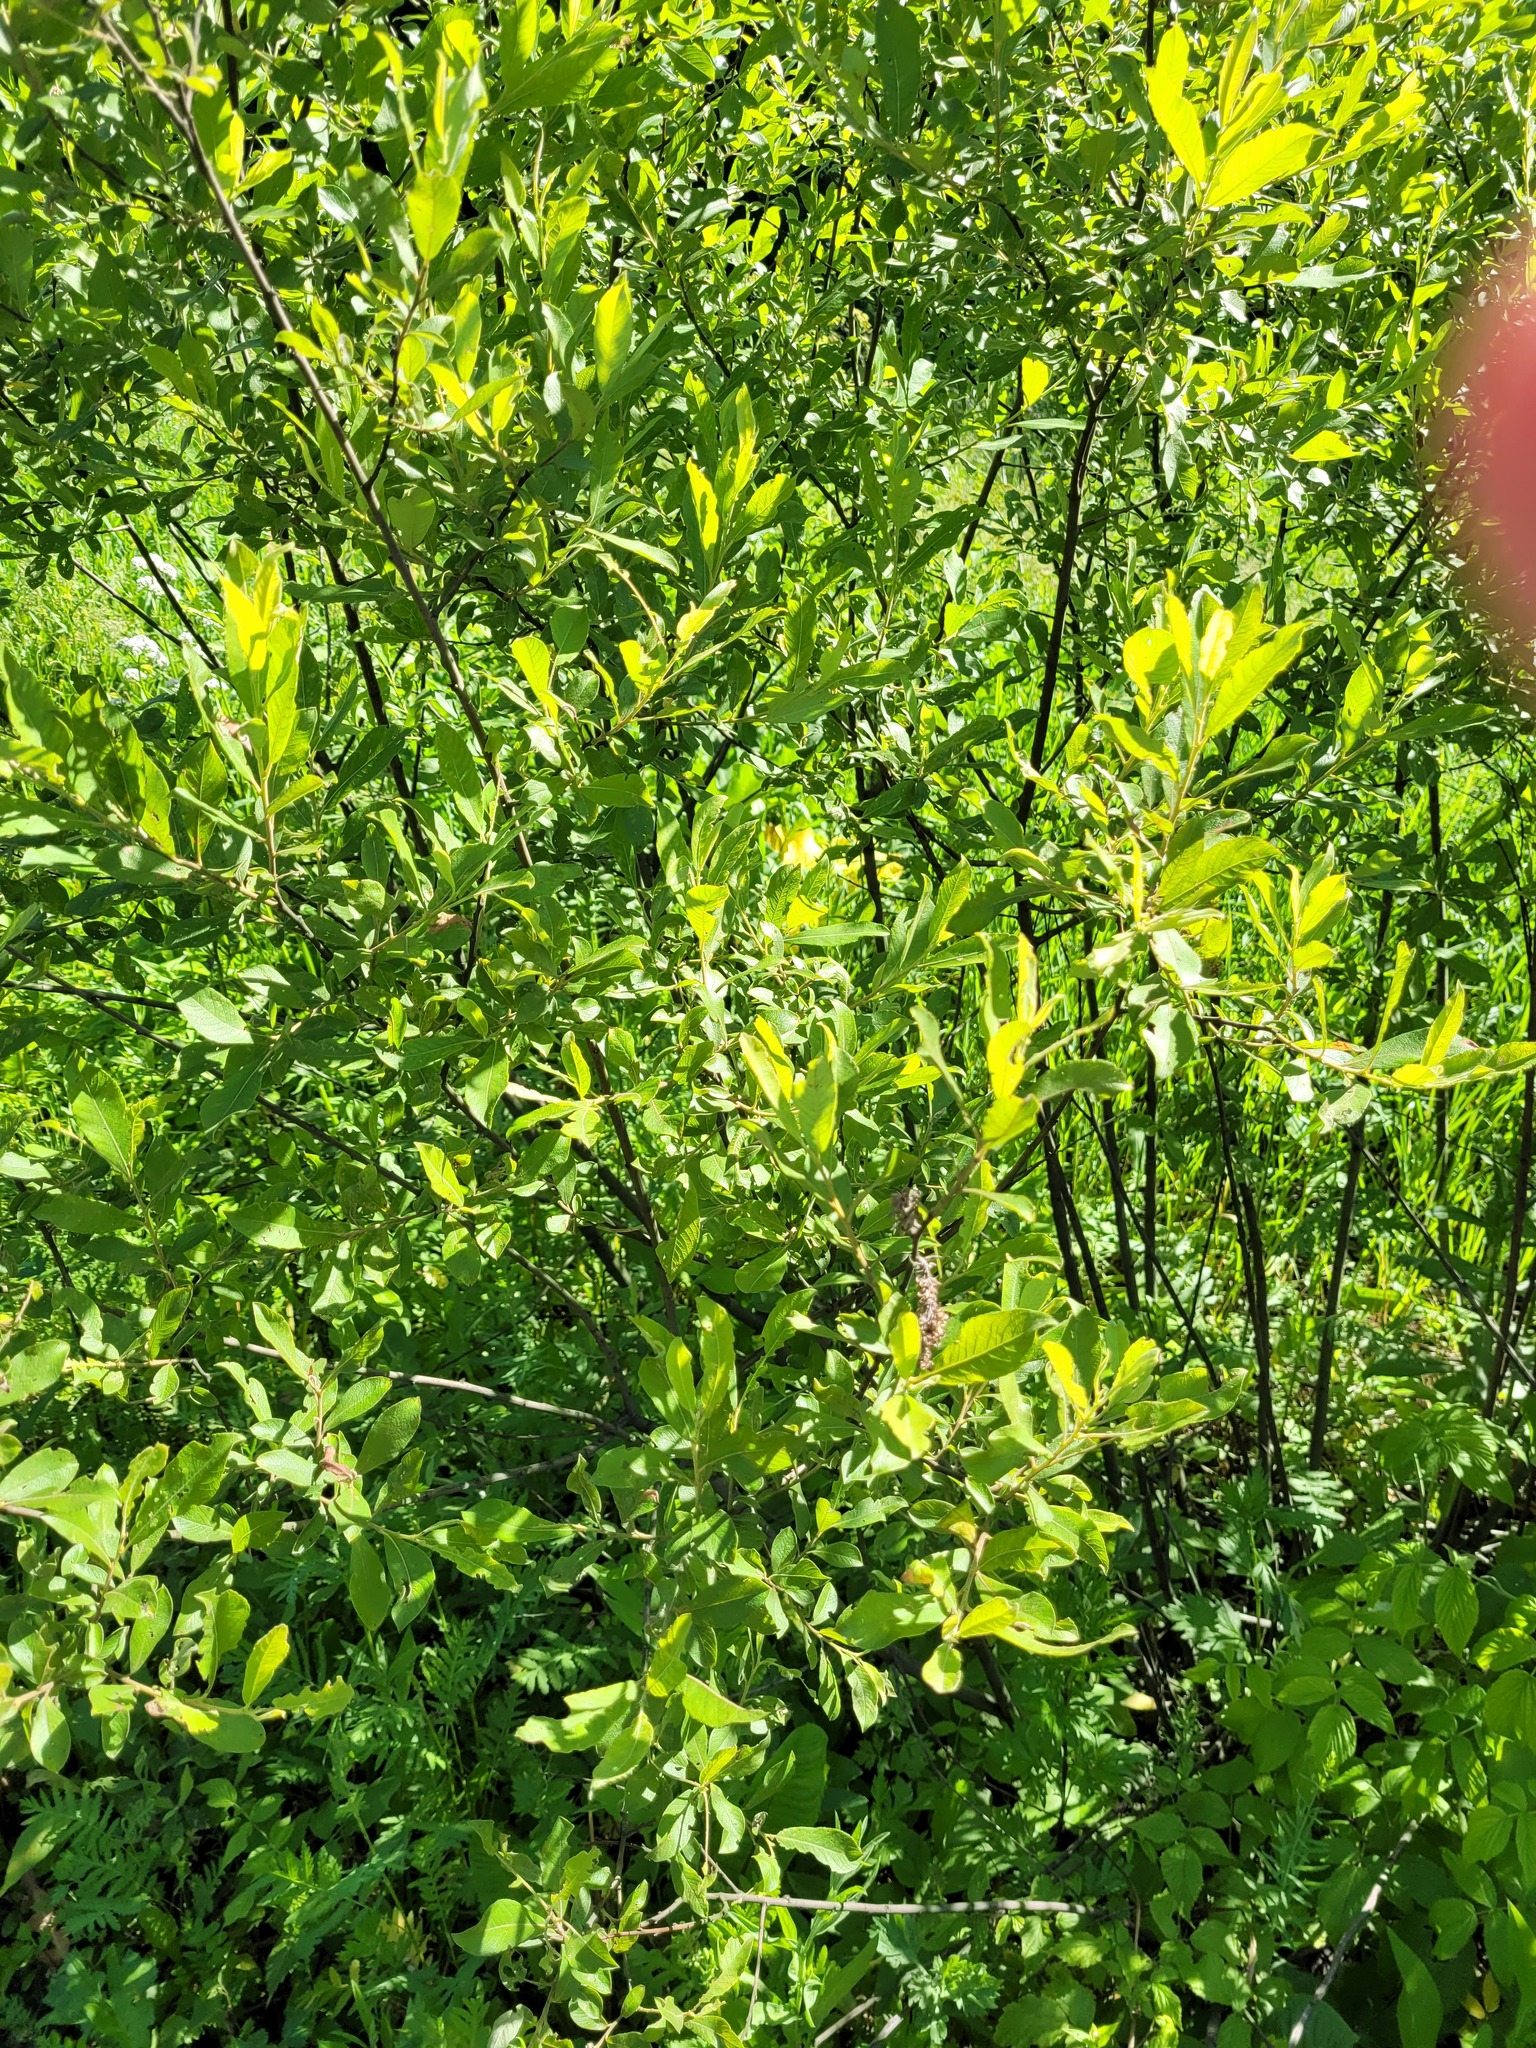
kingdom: Plantae
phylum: Tracheophyta
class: Magnoliopsida
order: Malpighiales
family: Salicaceae
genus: Salix
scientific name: Salix cinerea
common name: Common sallow
